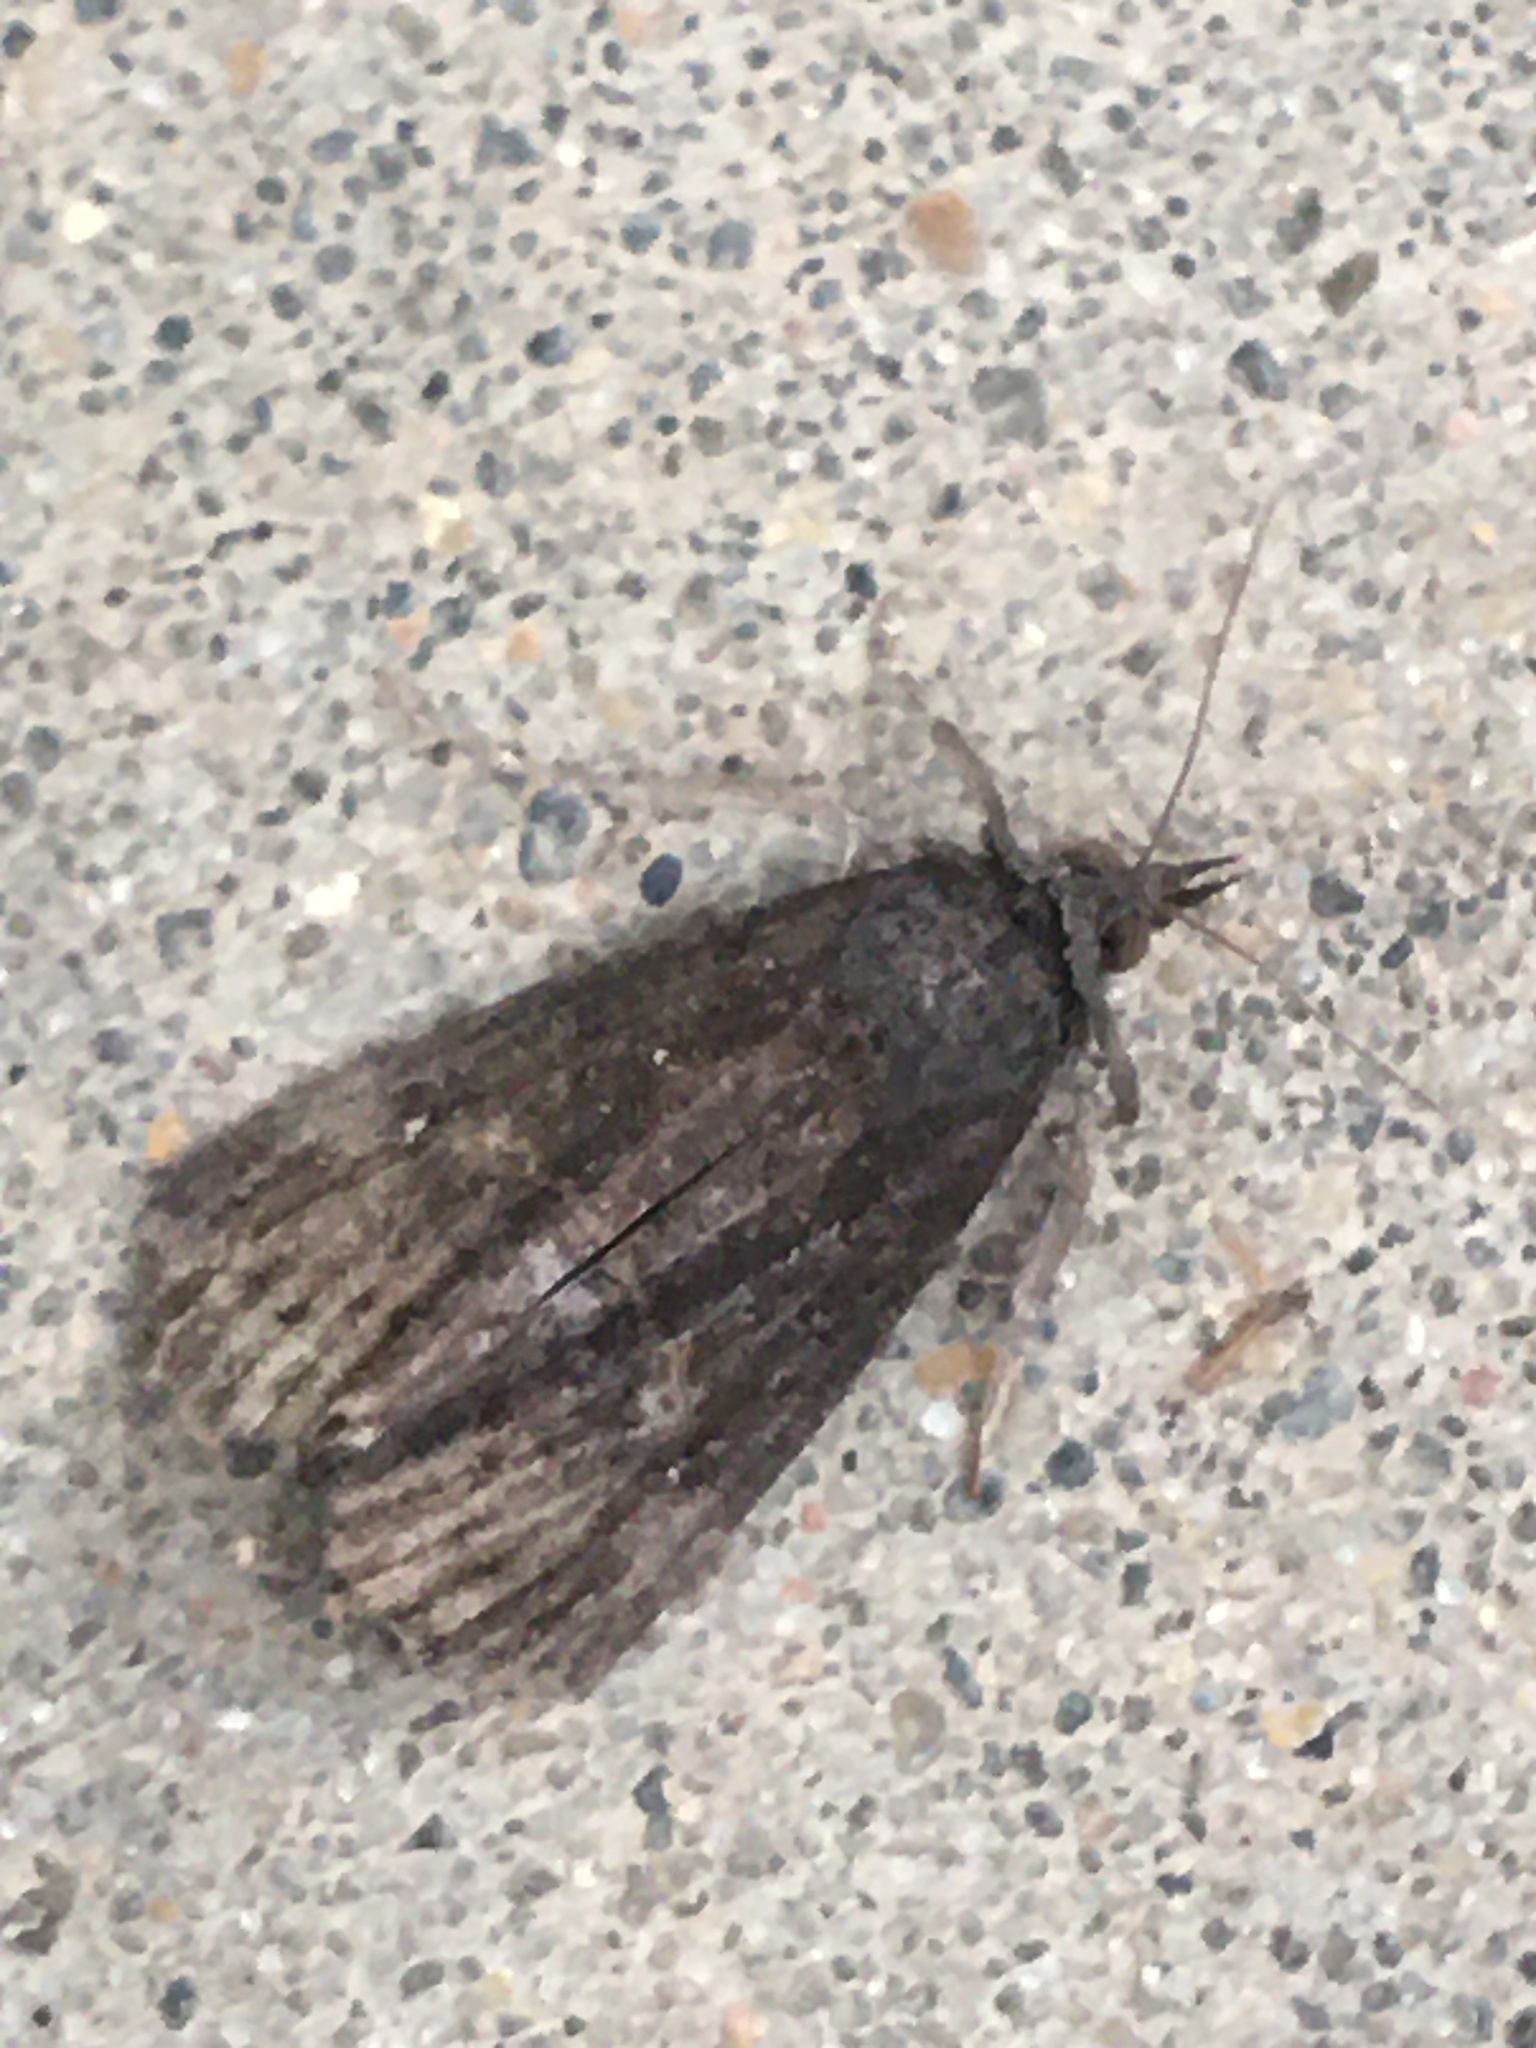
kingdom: Animalia
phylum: Arthropoda
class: Insecta
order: Lepidoptera
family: Erebidae
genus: Hypena
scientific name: Hypena scabra
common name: Green cloverworm
